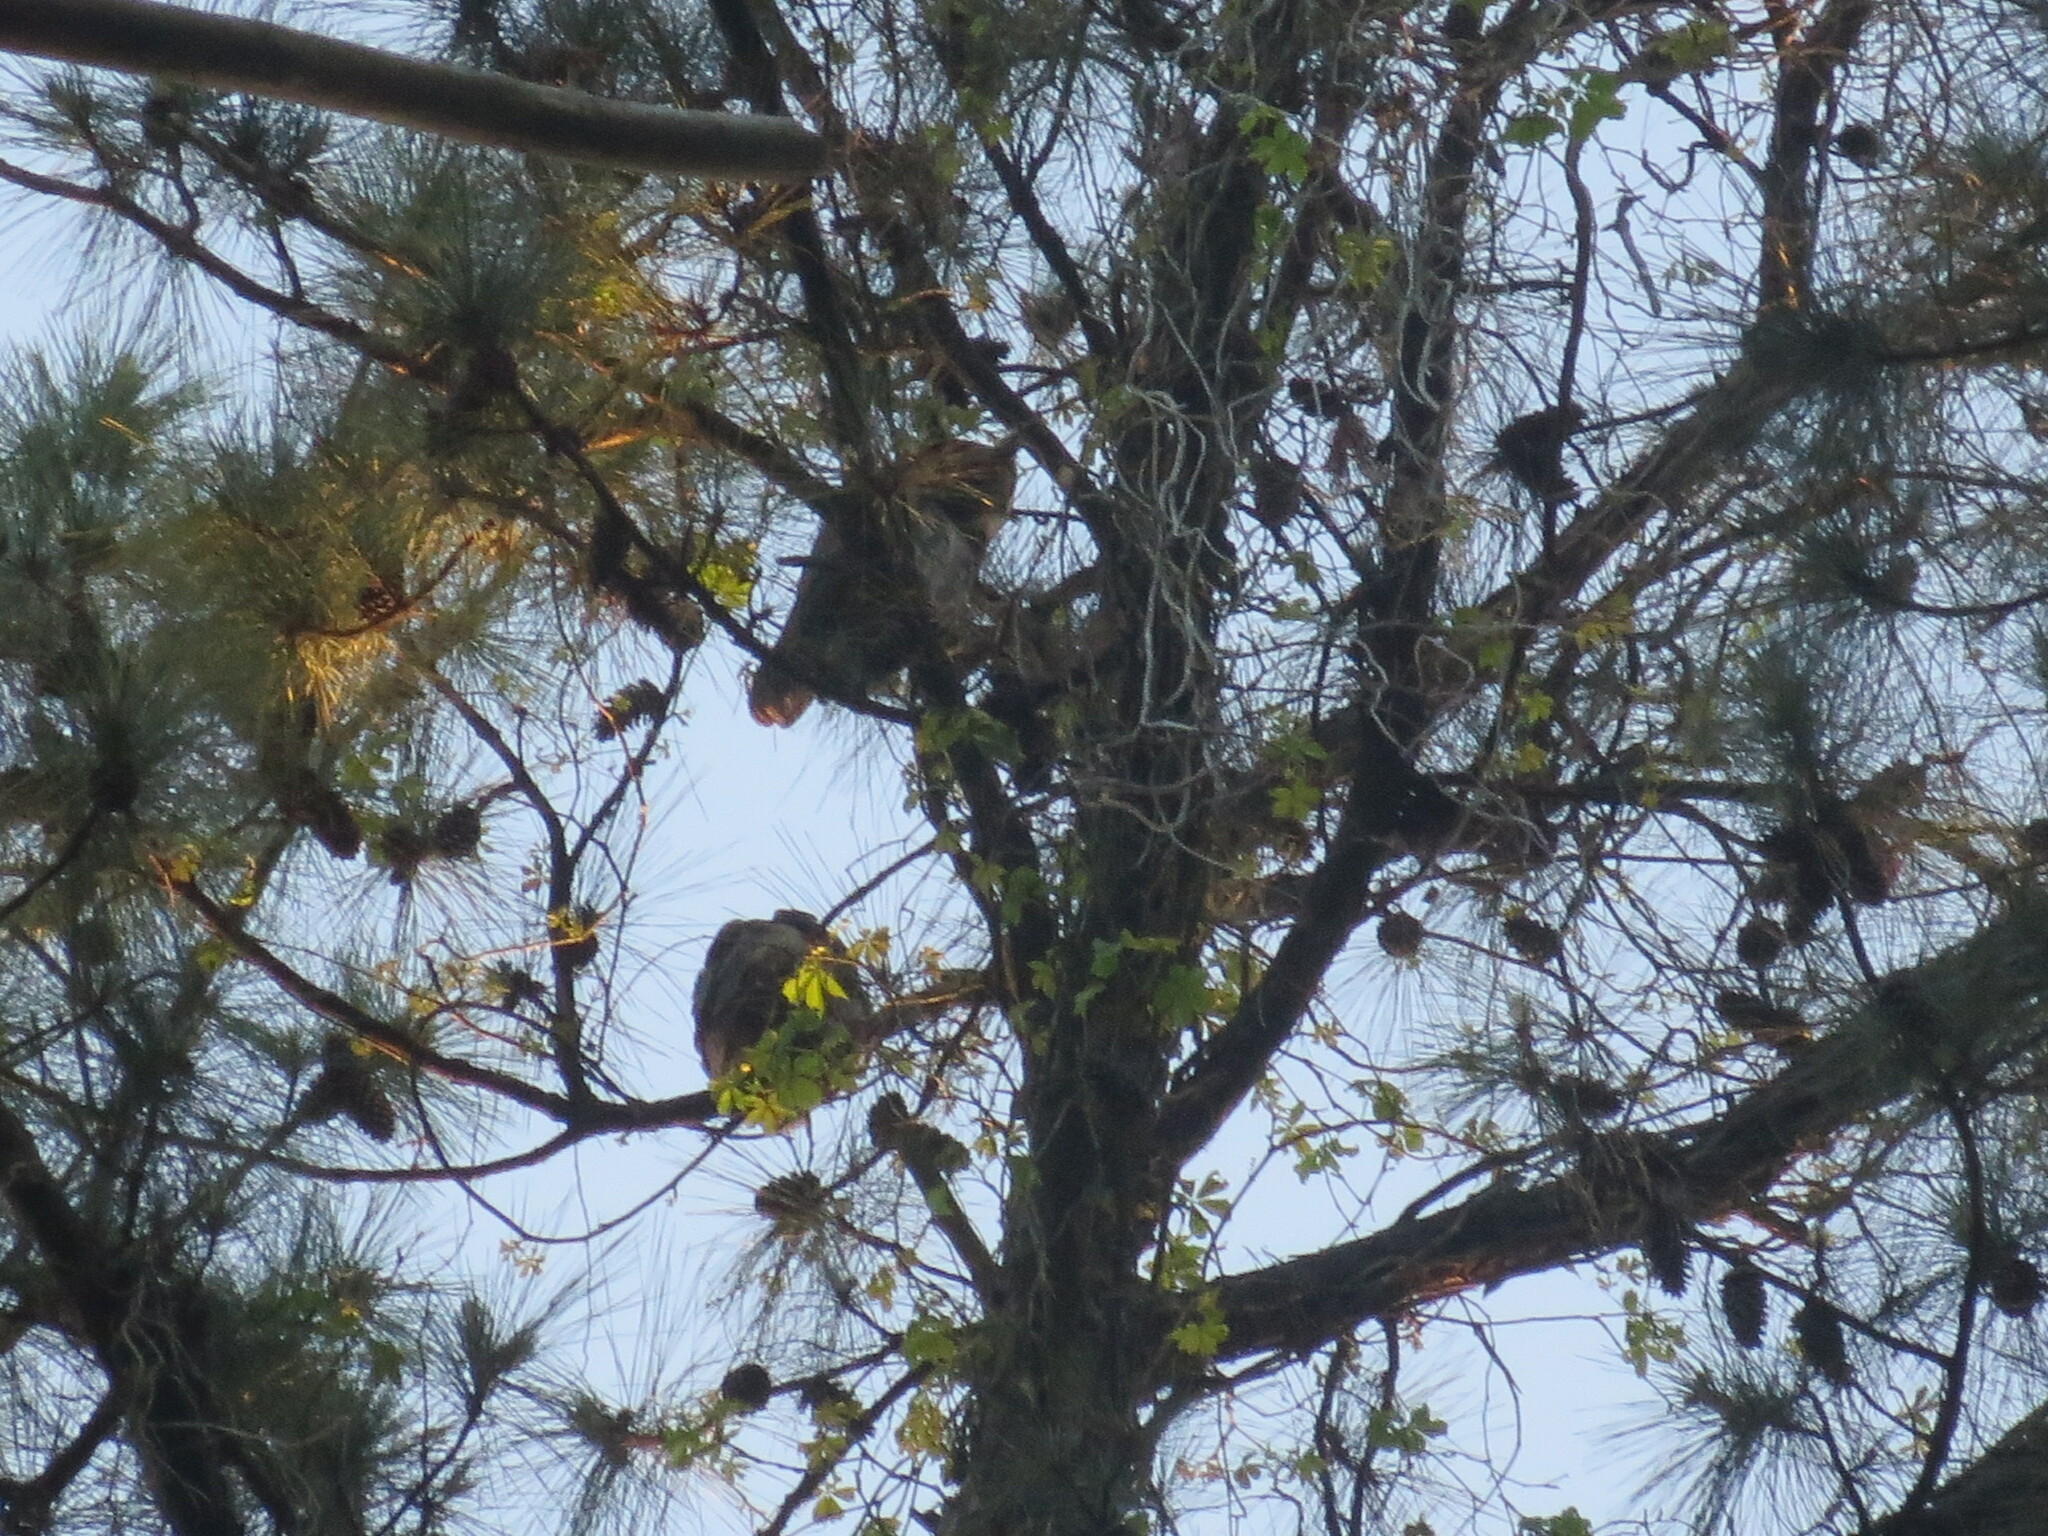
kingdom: Animalia
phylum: Chordata
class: Aves
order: Strigiformes
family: Strigidae
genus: Bubo
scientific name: Bubo virginianus
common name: Great horned owl
